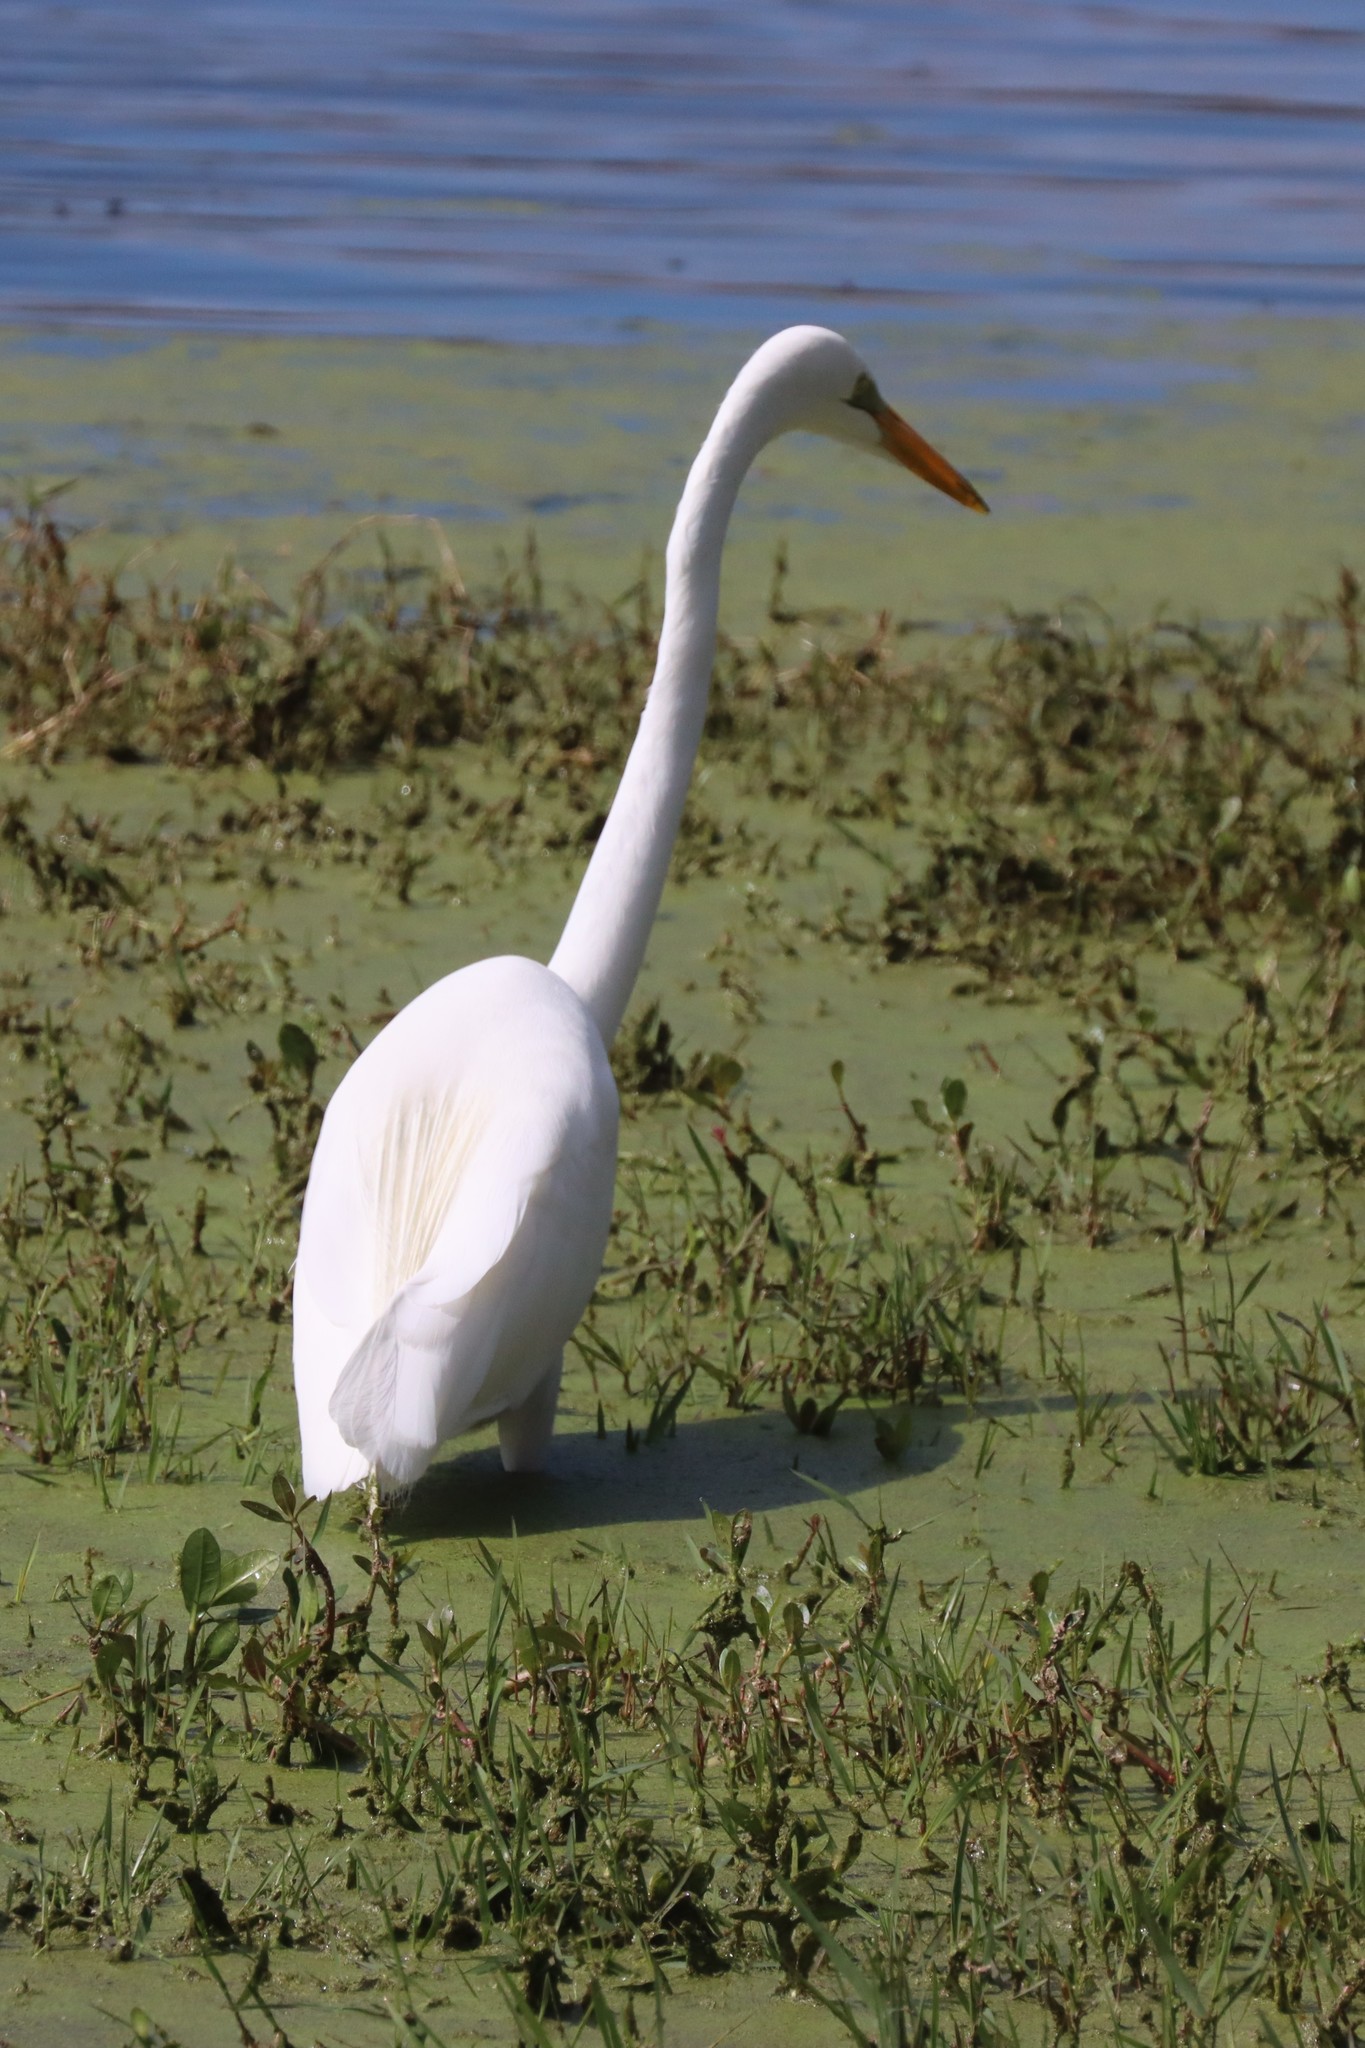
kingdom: Animalia
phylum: Chordata
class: Aves
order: Pelecaniformes
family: Ardeidae
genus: Ardea
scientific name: Ardea alba
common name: Great egret
